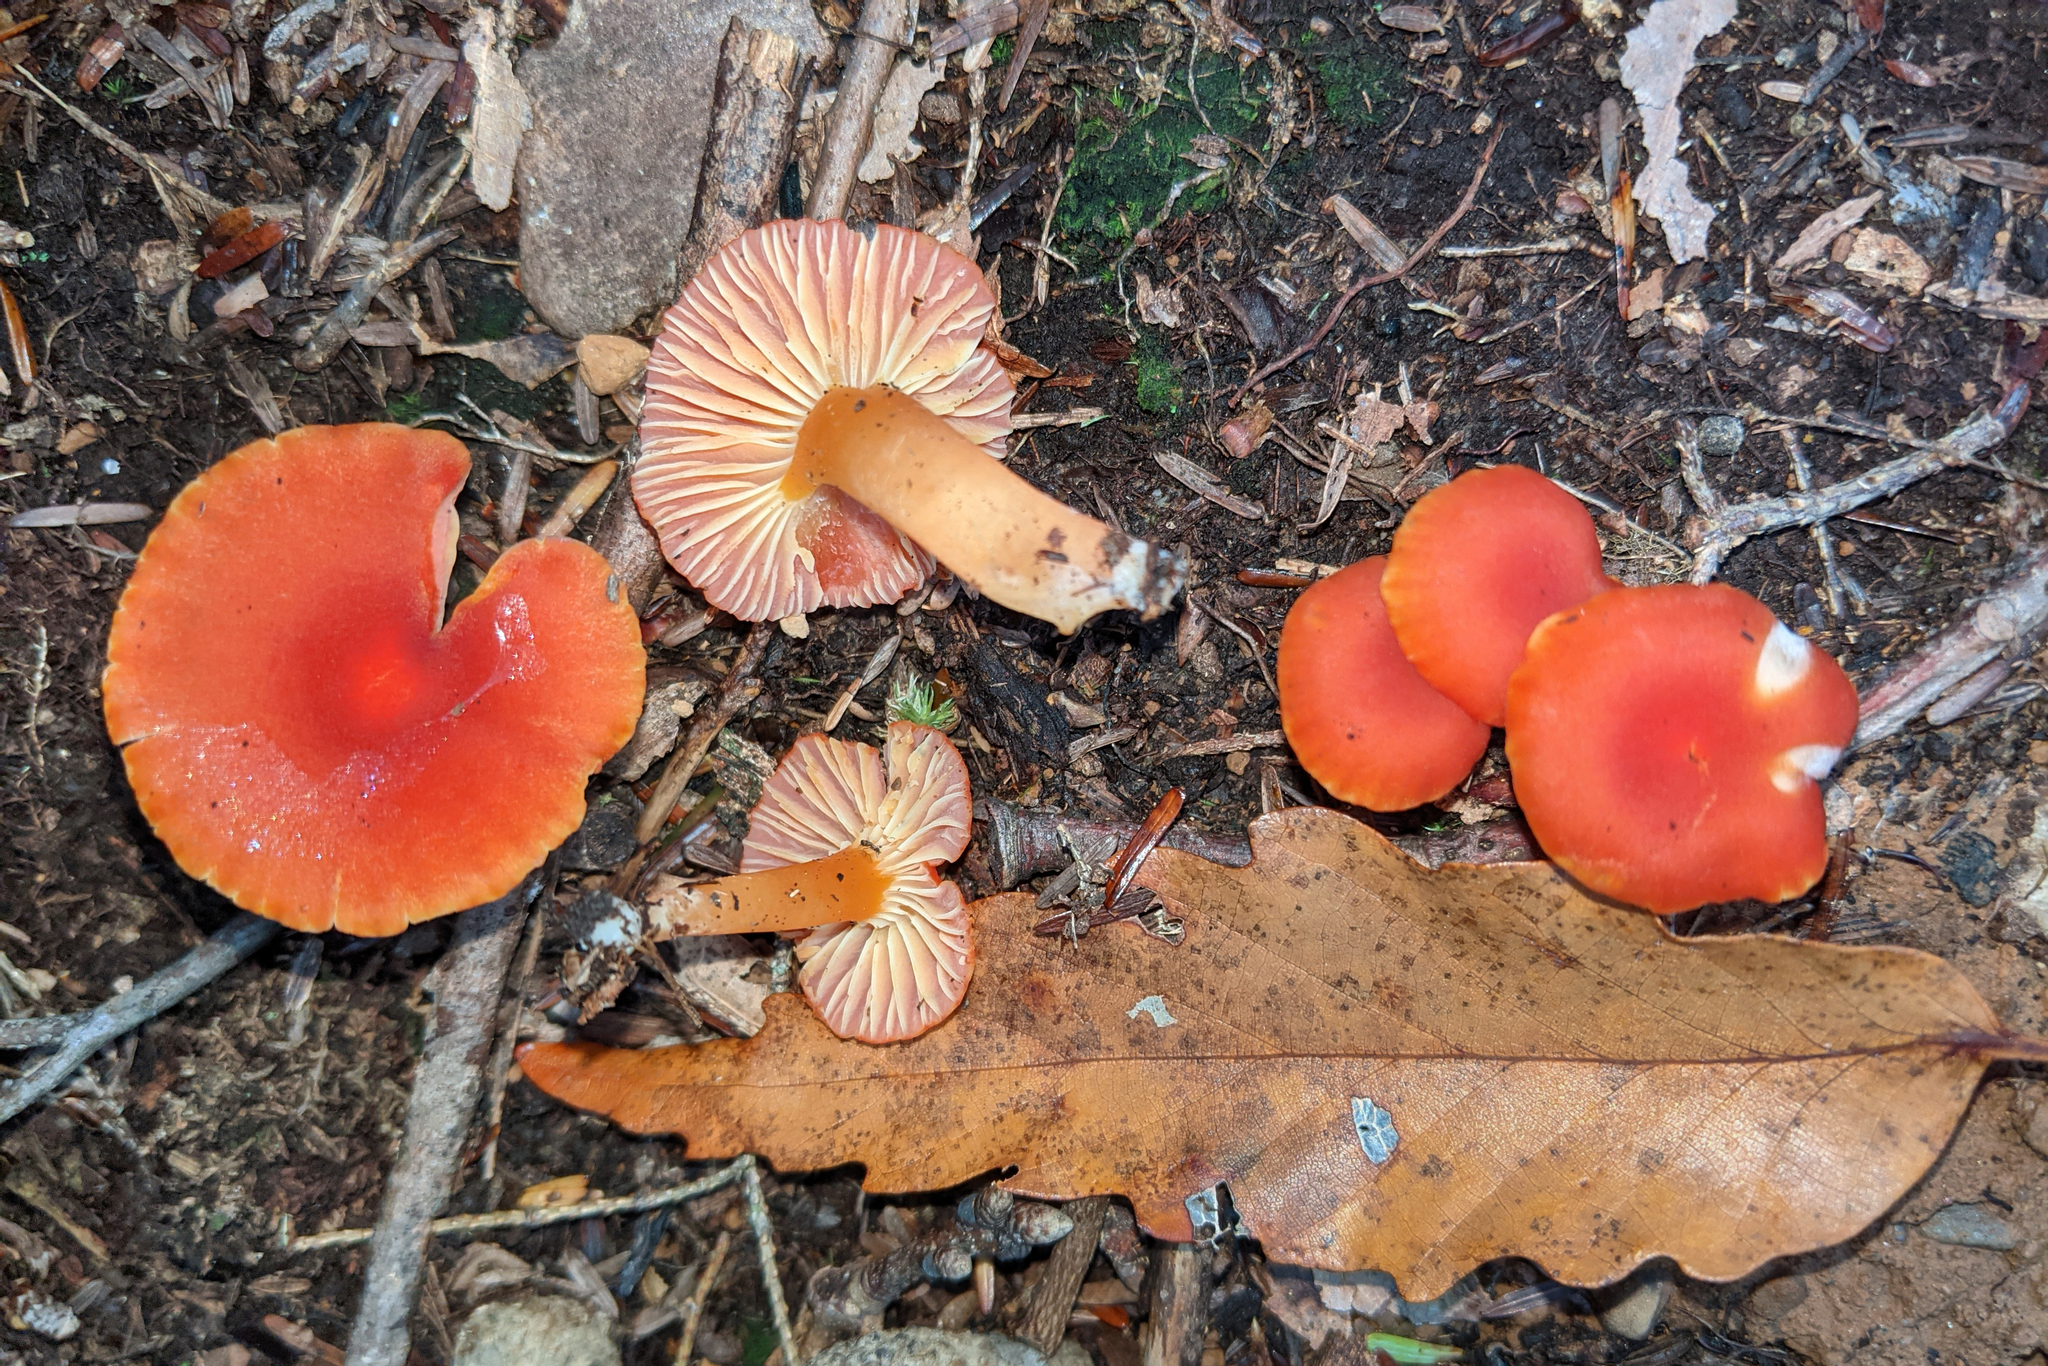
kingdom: Fungi
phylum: Basidiomycota
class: Agaricomycetes
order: Agaricales
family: Hygrophoraceae
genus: Hygrocybe
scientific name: Hygrocybe coccinea
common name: Scarlet hood
